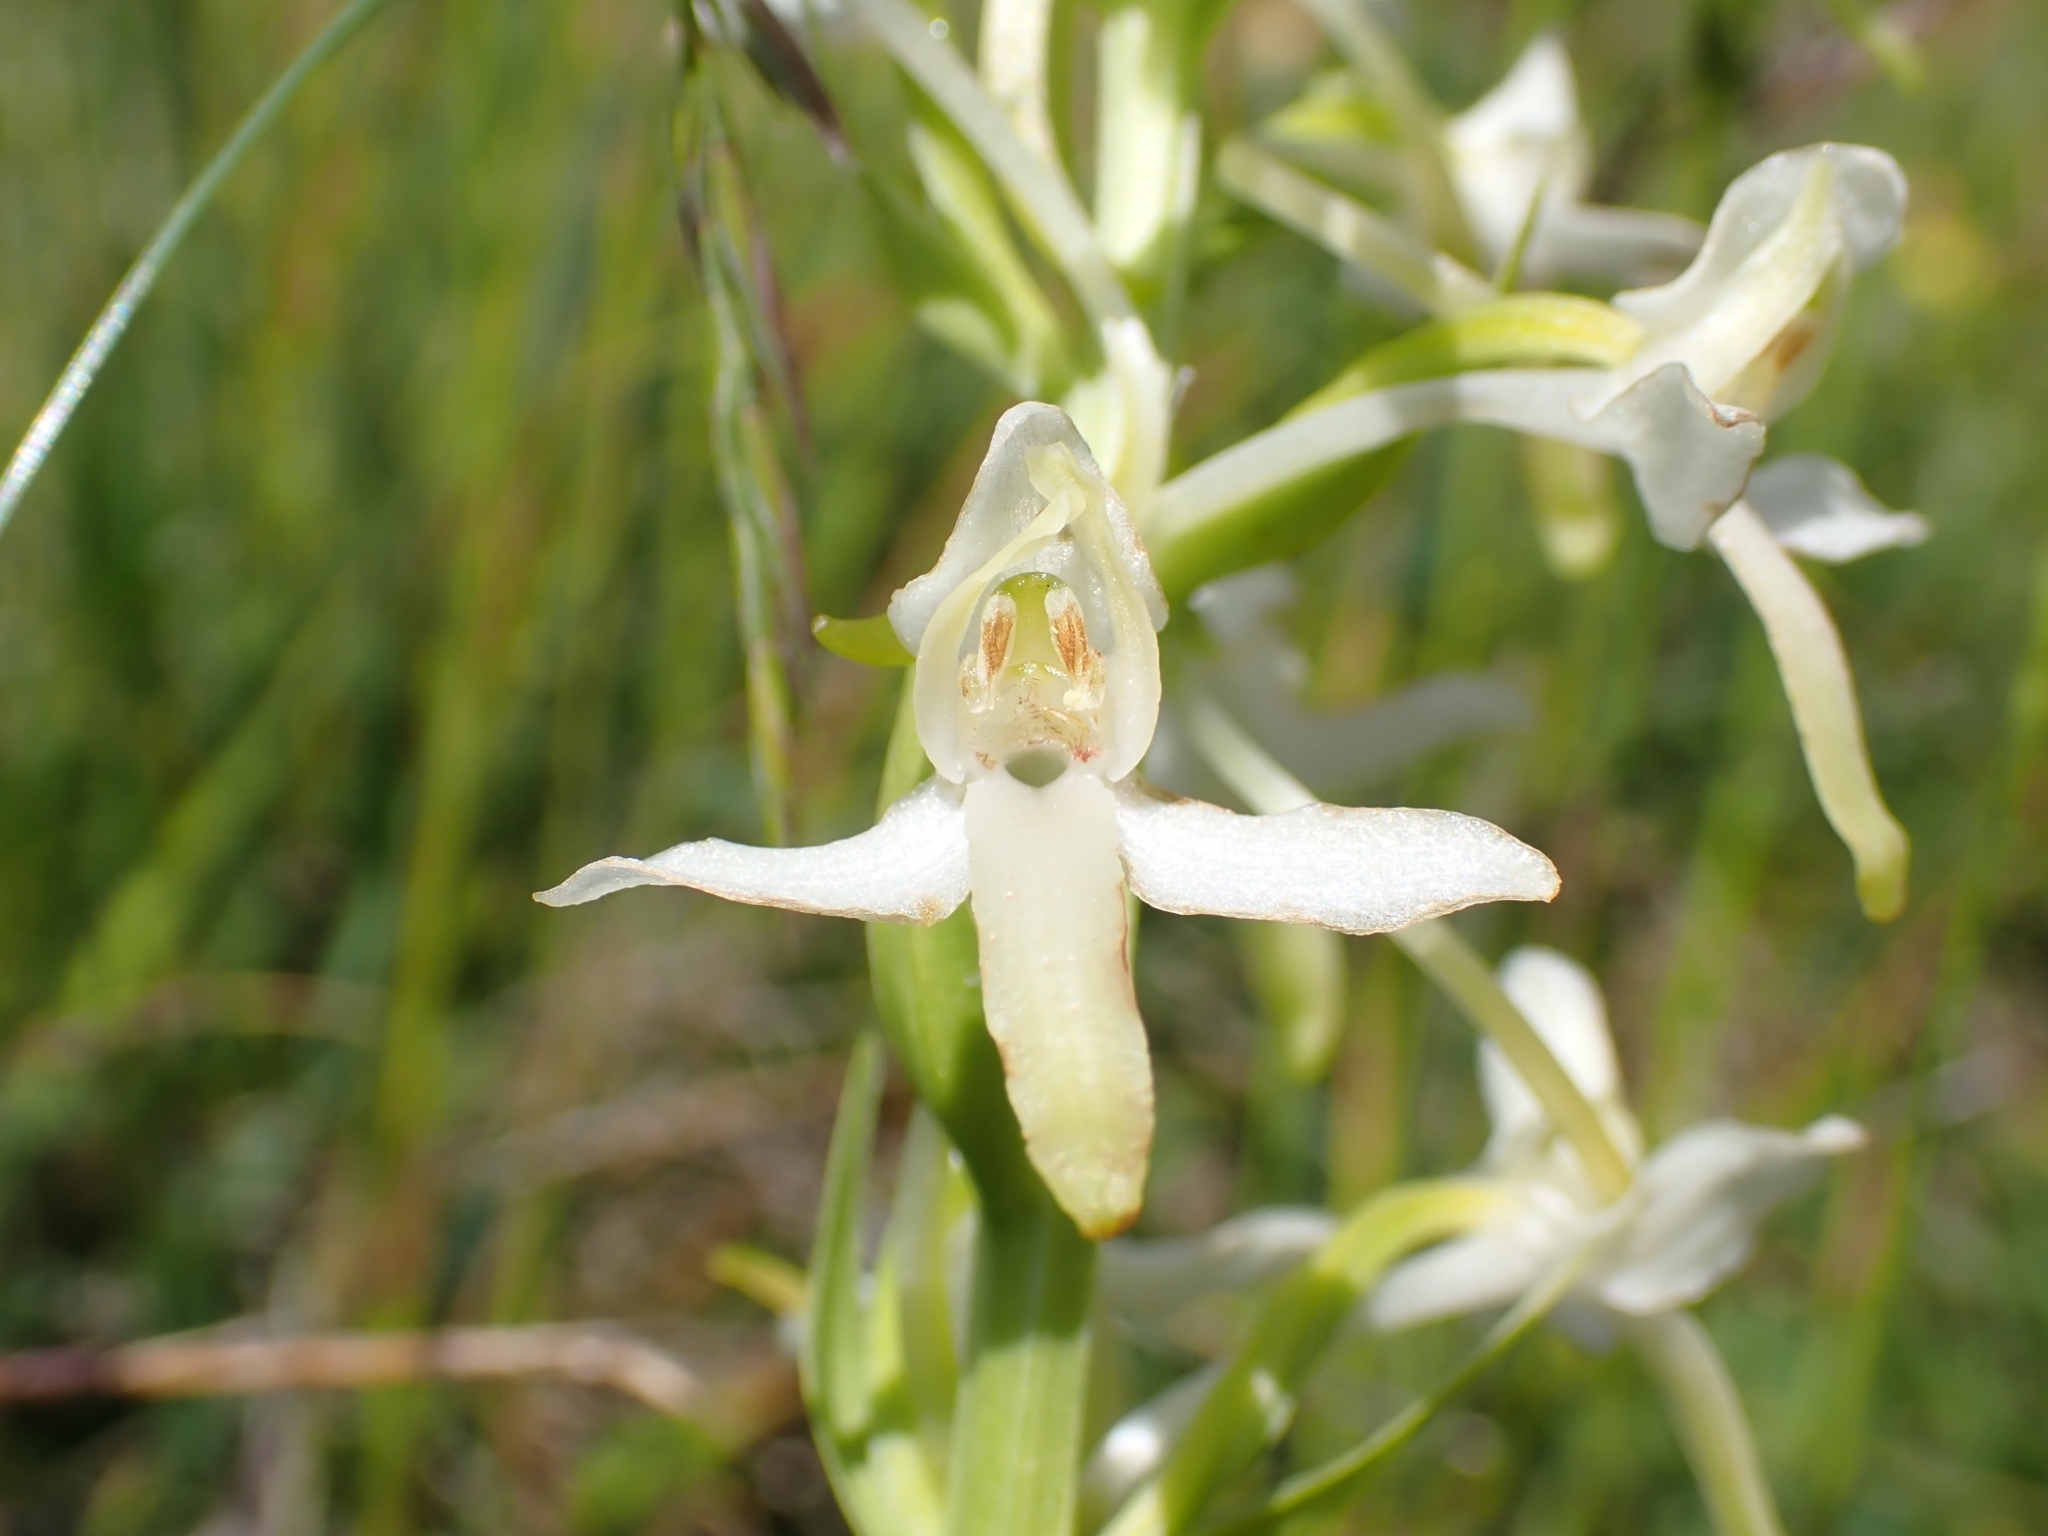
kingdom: Plantae
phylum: Tracheophyta
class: Liliopsida
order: Asparagales
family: Orchidaceae
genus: Platanthera
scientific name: Platanthera bifolia
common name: Lesser butterfly-orchid
